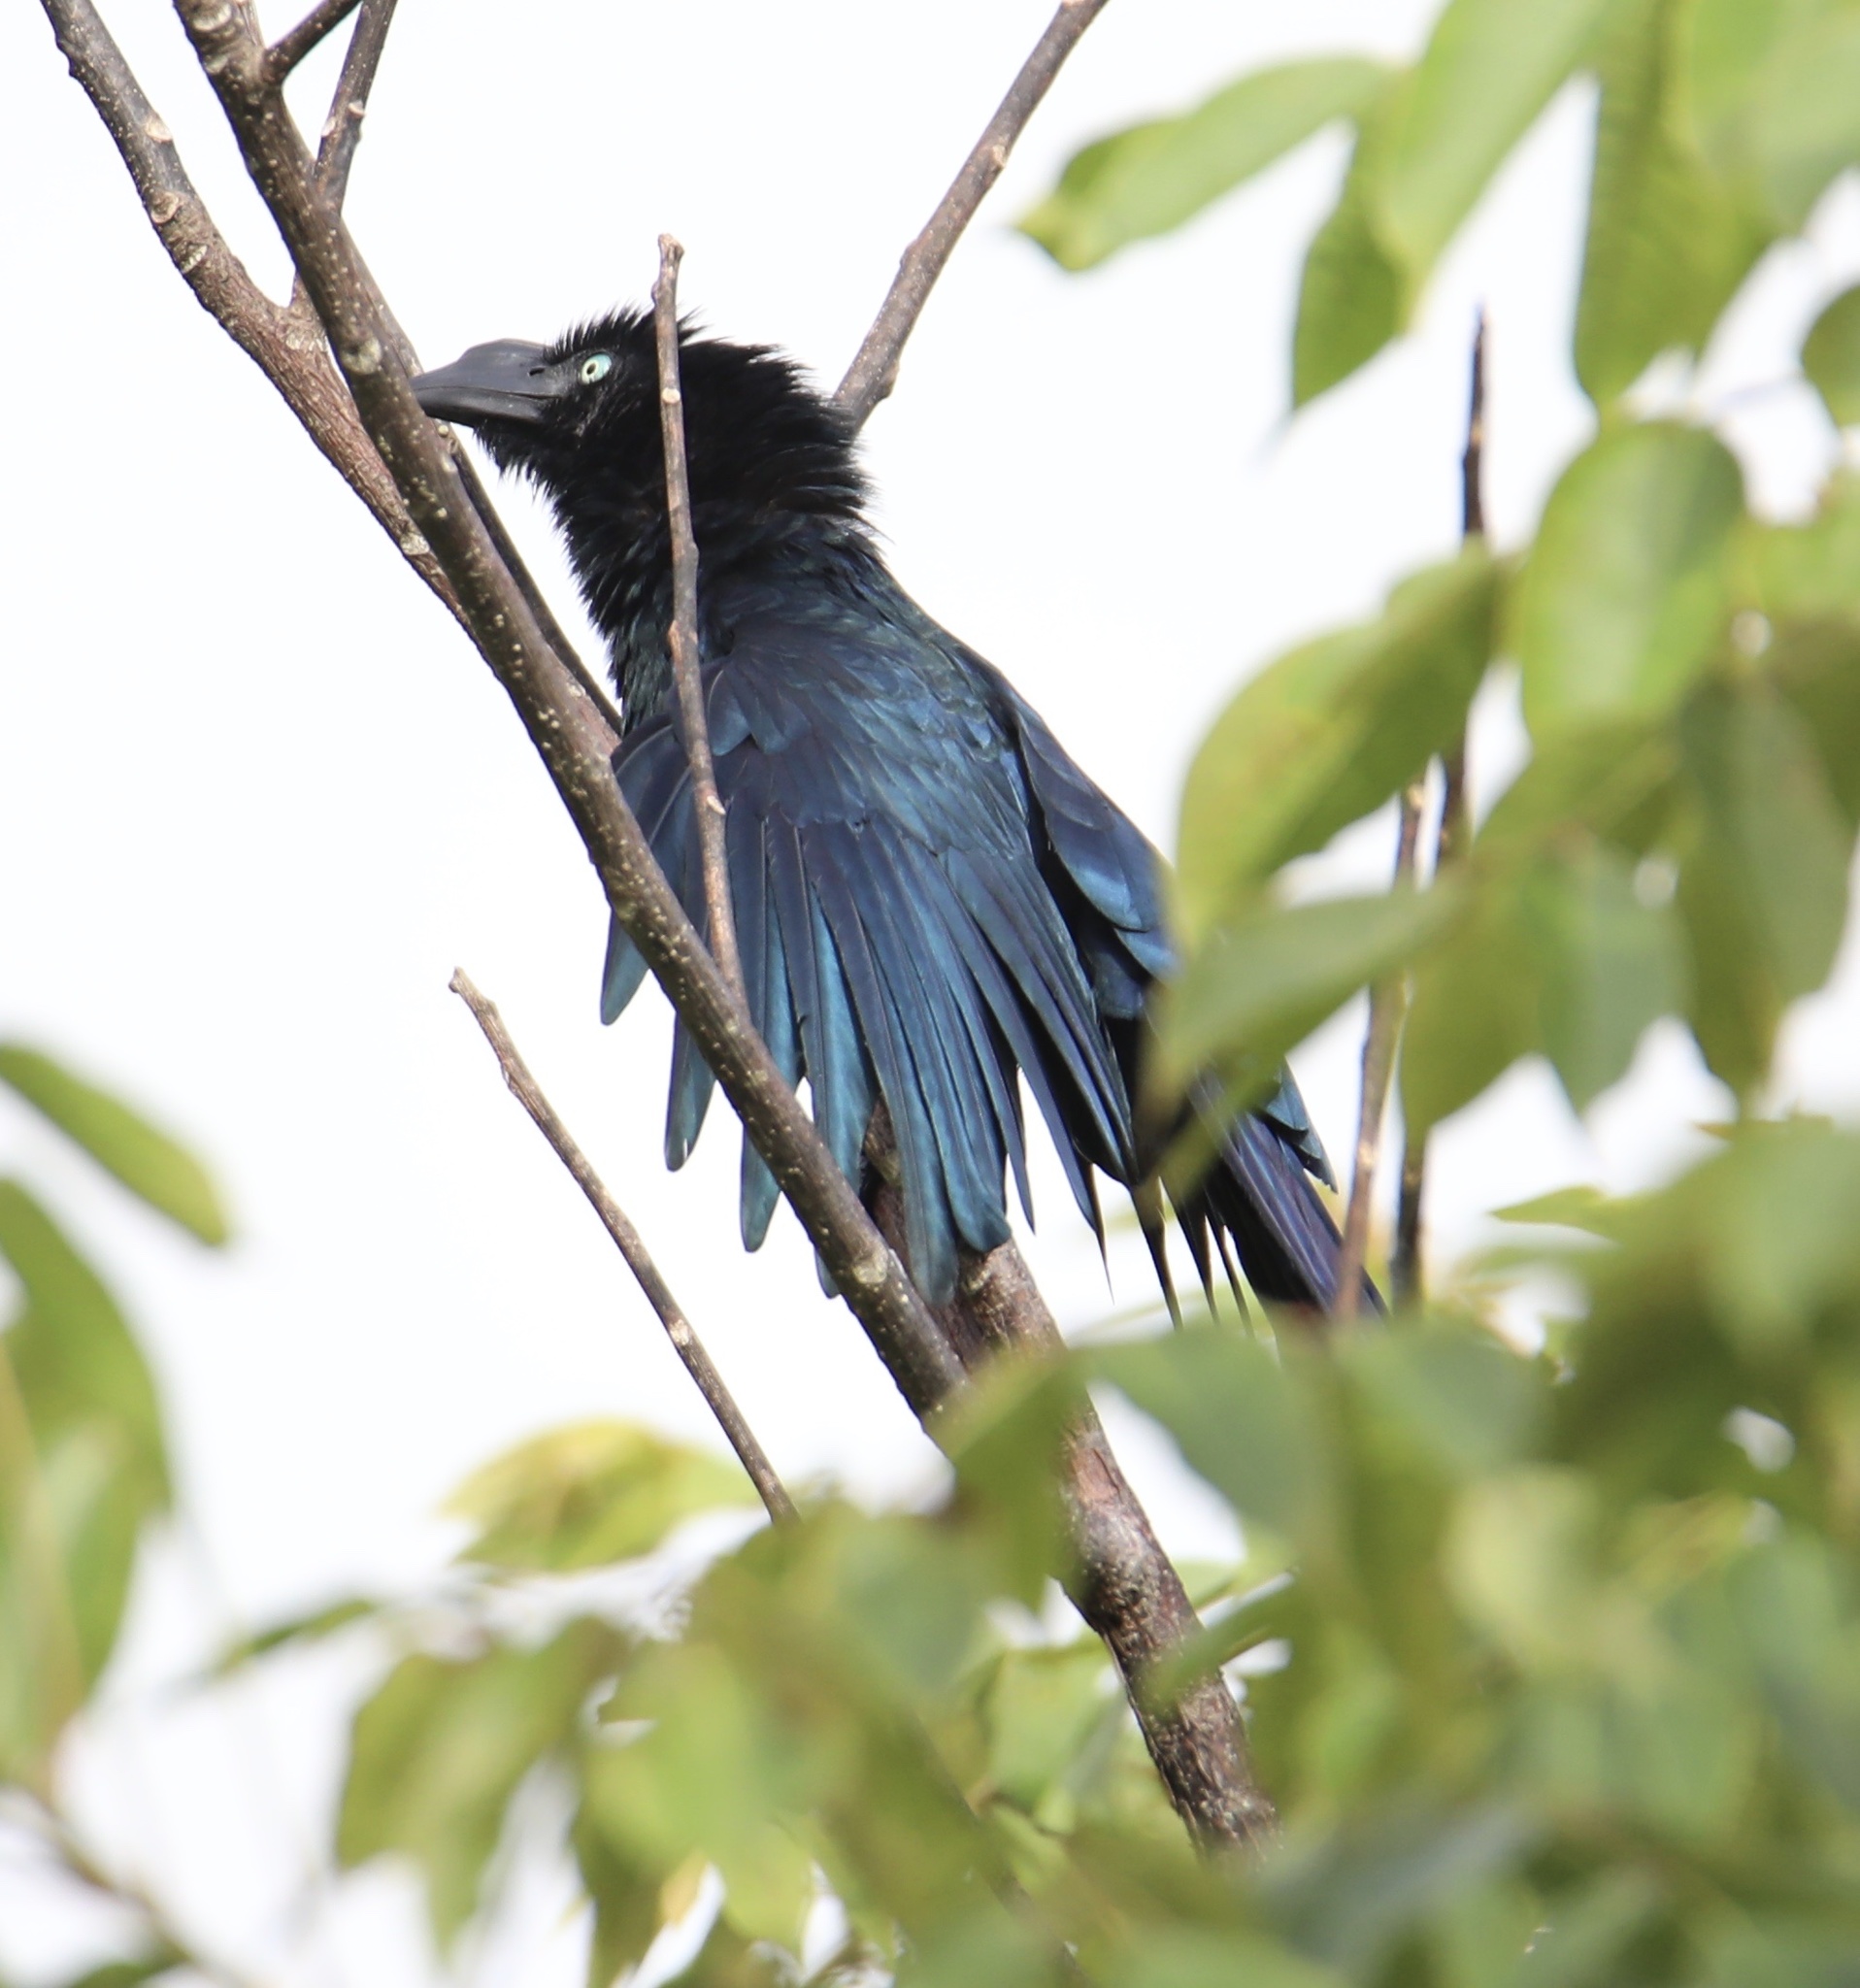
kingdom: Animalia
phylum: Chordata
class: Aves
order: Cuculiformes
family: Cuculidae
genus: Crotophaga
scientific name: Crotophaga major
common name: Greater ani
